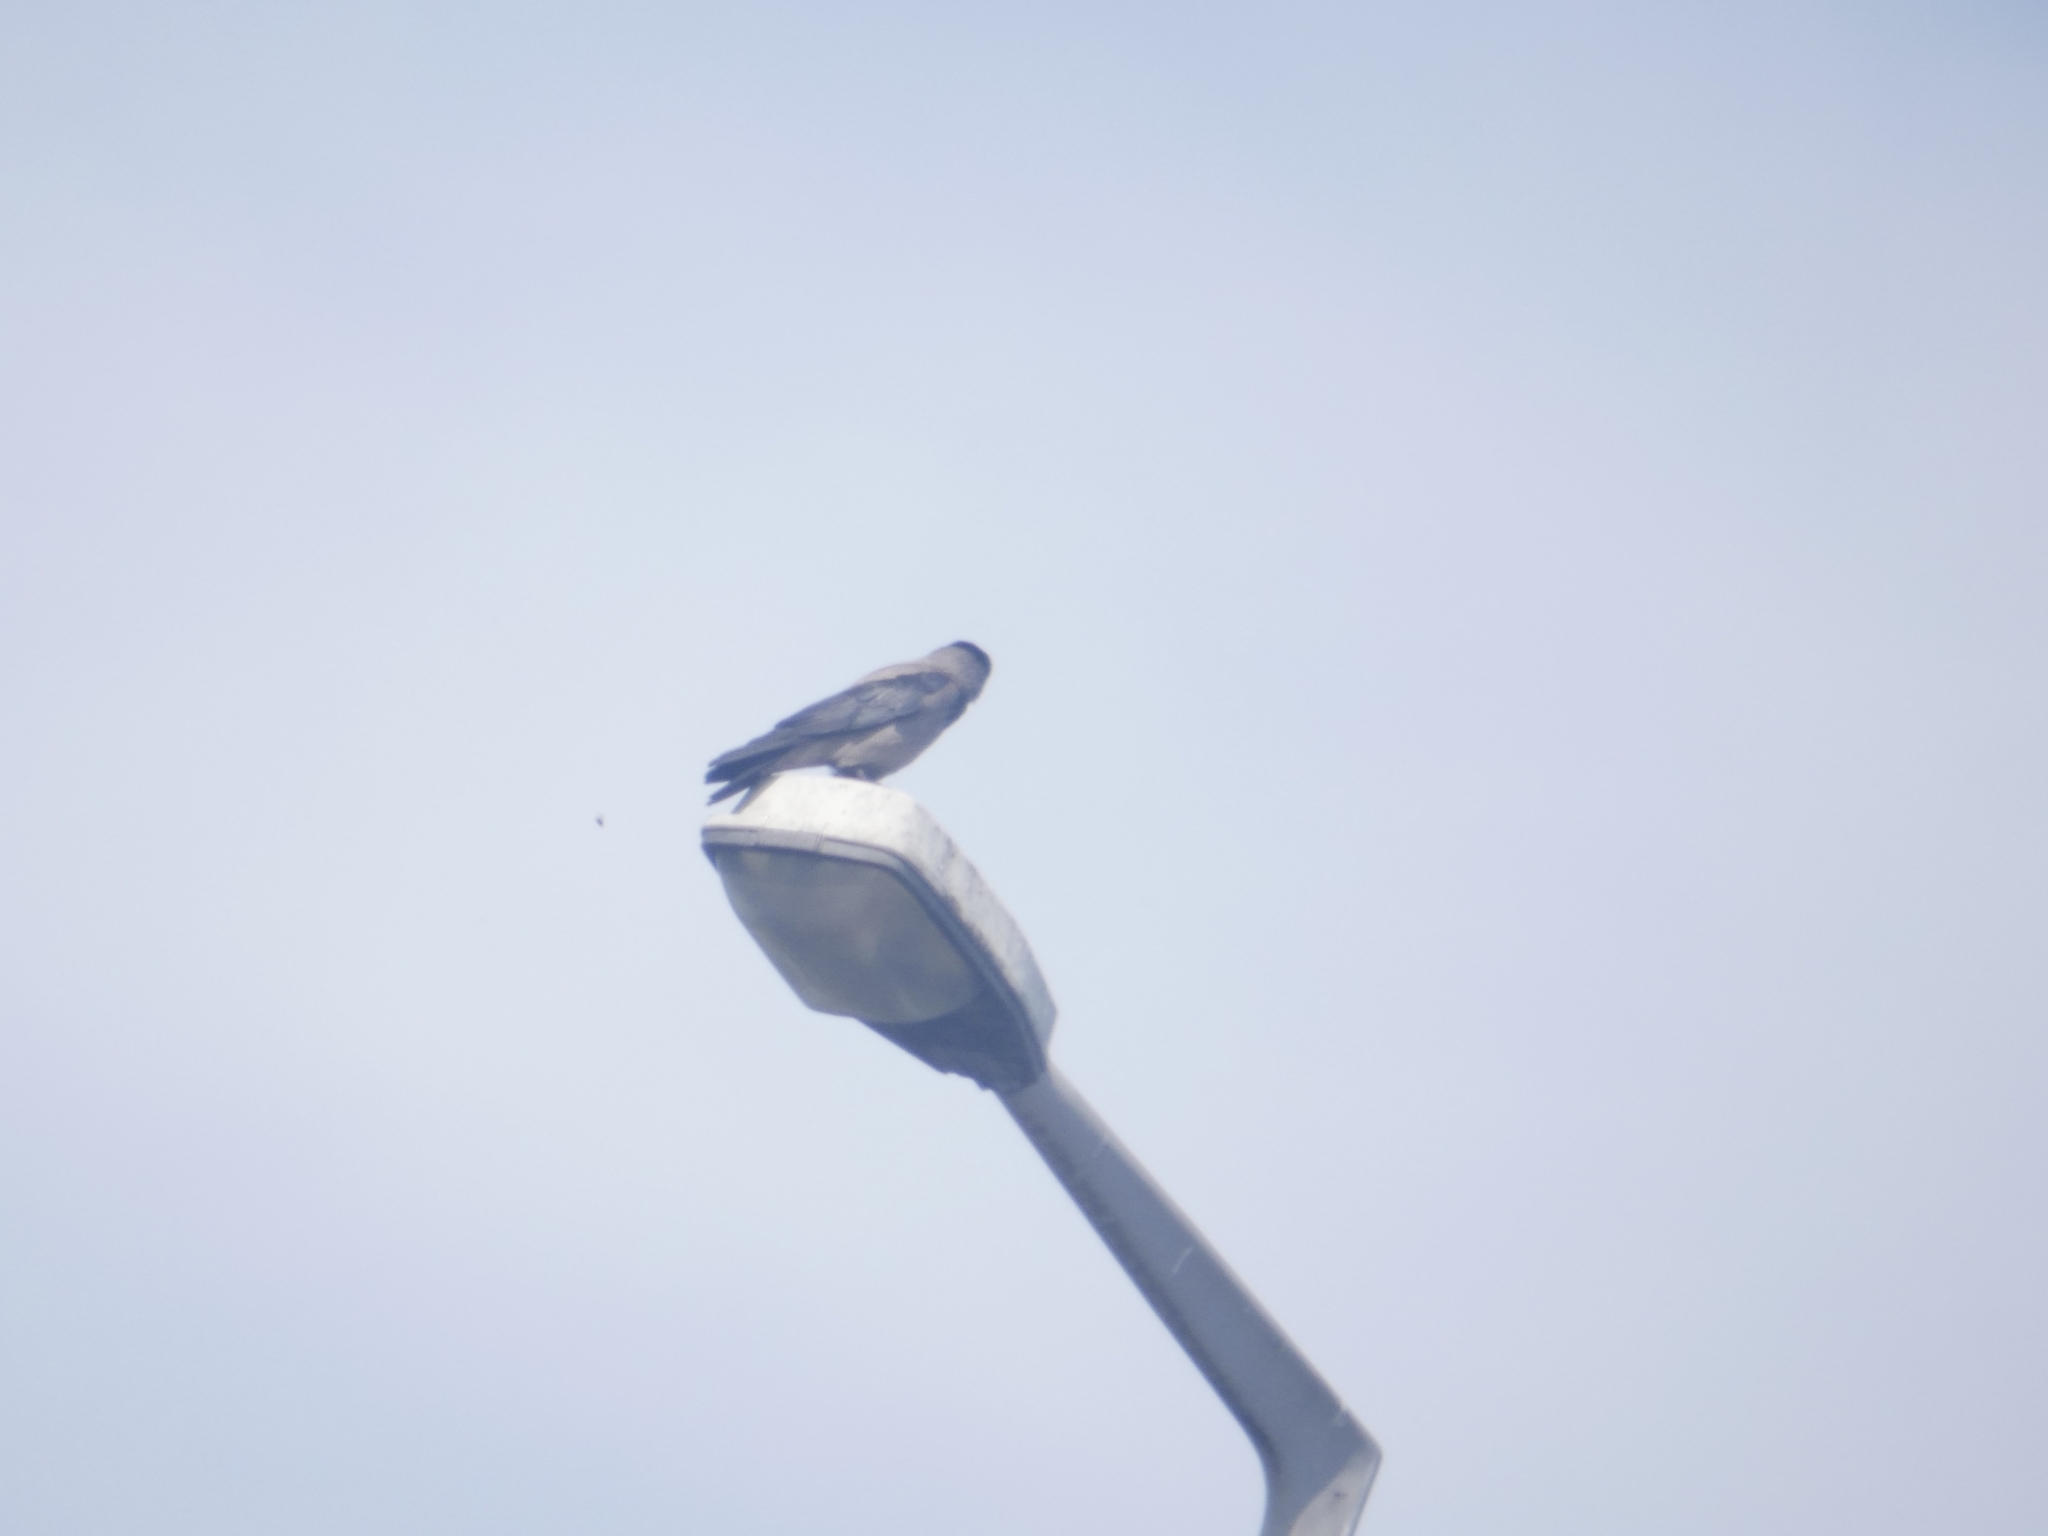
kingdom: Animalia
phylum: Chordata
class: Aves
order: Passeriformes
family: Corvidae
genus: Corvus
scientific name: Corvus cornix
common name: Hooded crow
